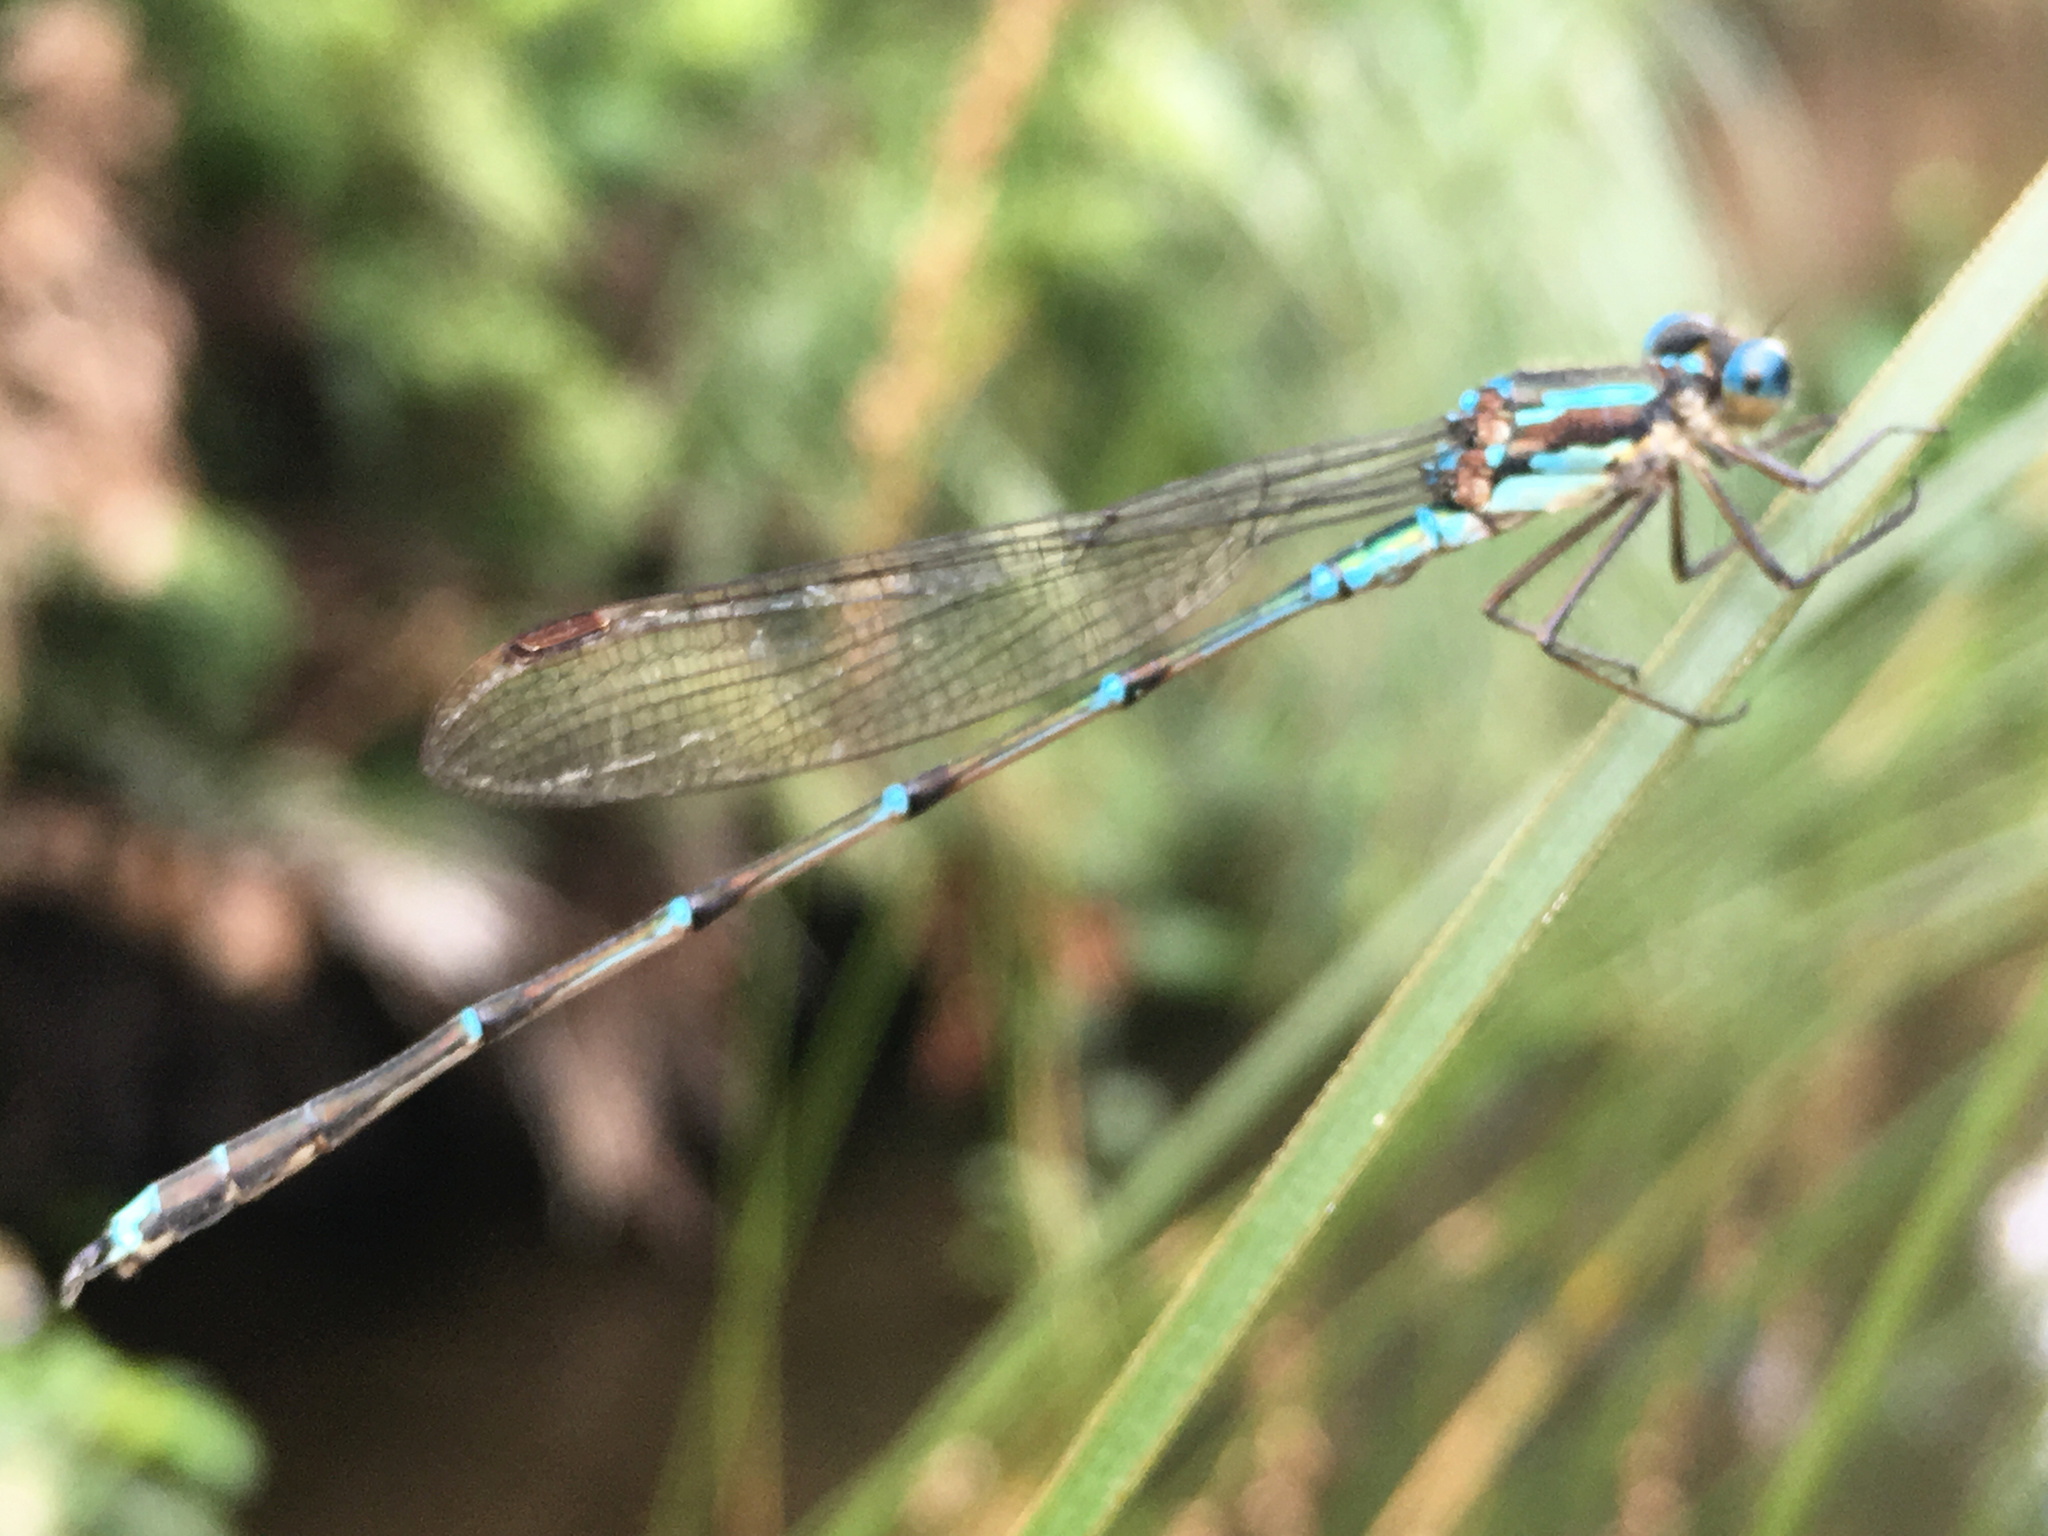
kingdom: Animalia
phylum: Arthropoda
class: Insecta
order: Odonata
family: Lestidae
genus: Austrolestes
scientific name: Austrolestes colensonis
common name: Blue damselfly
